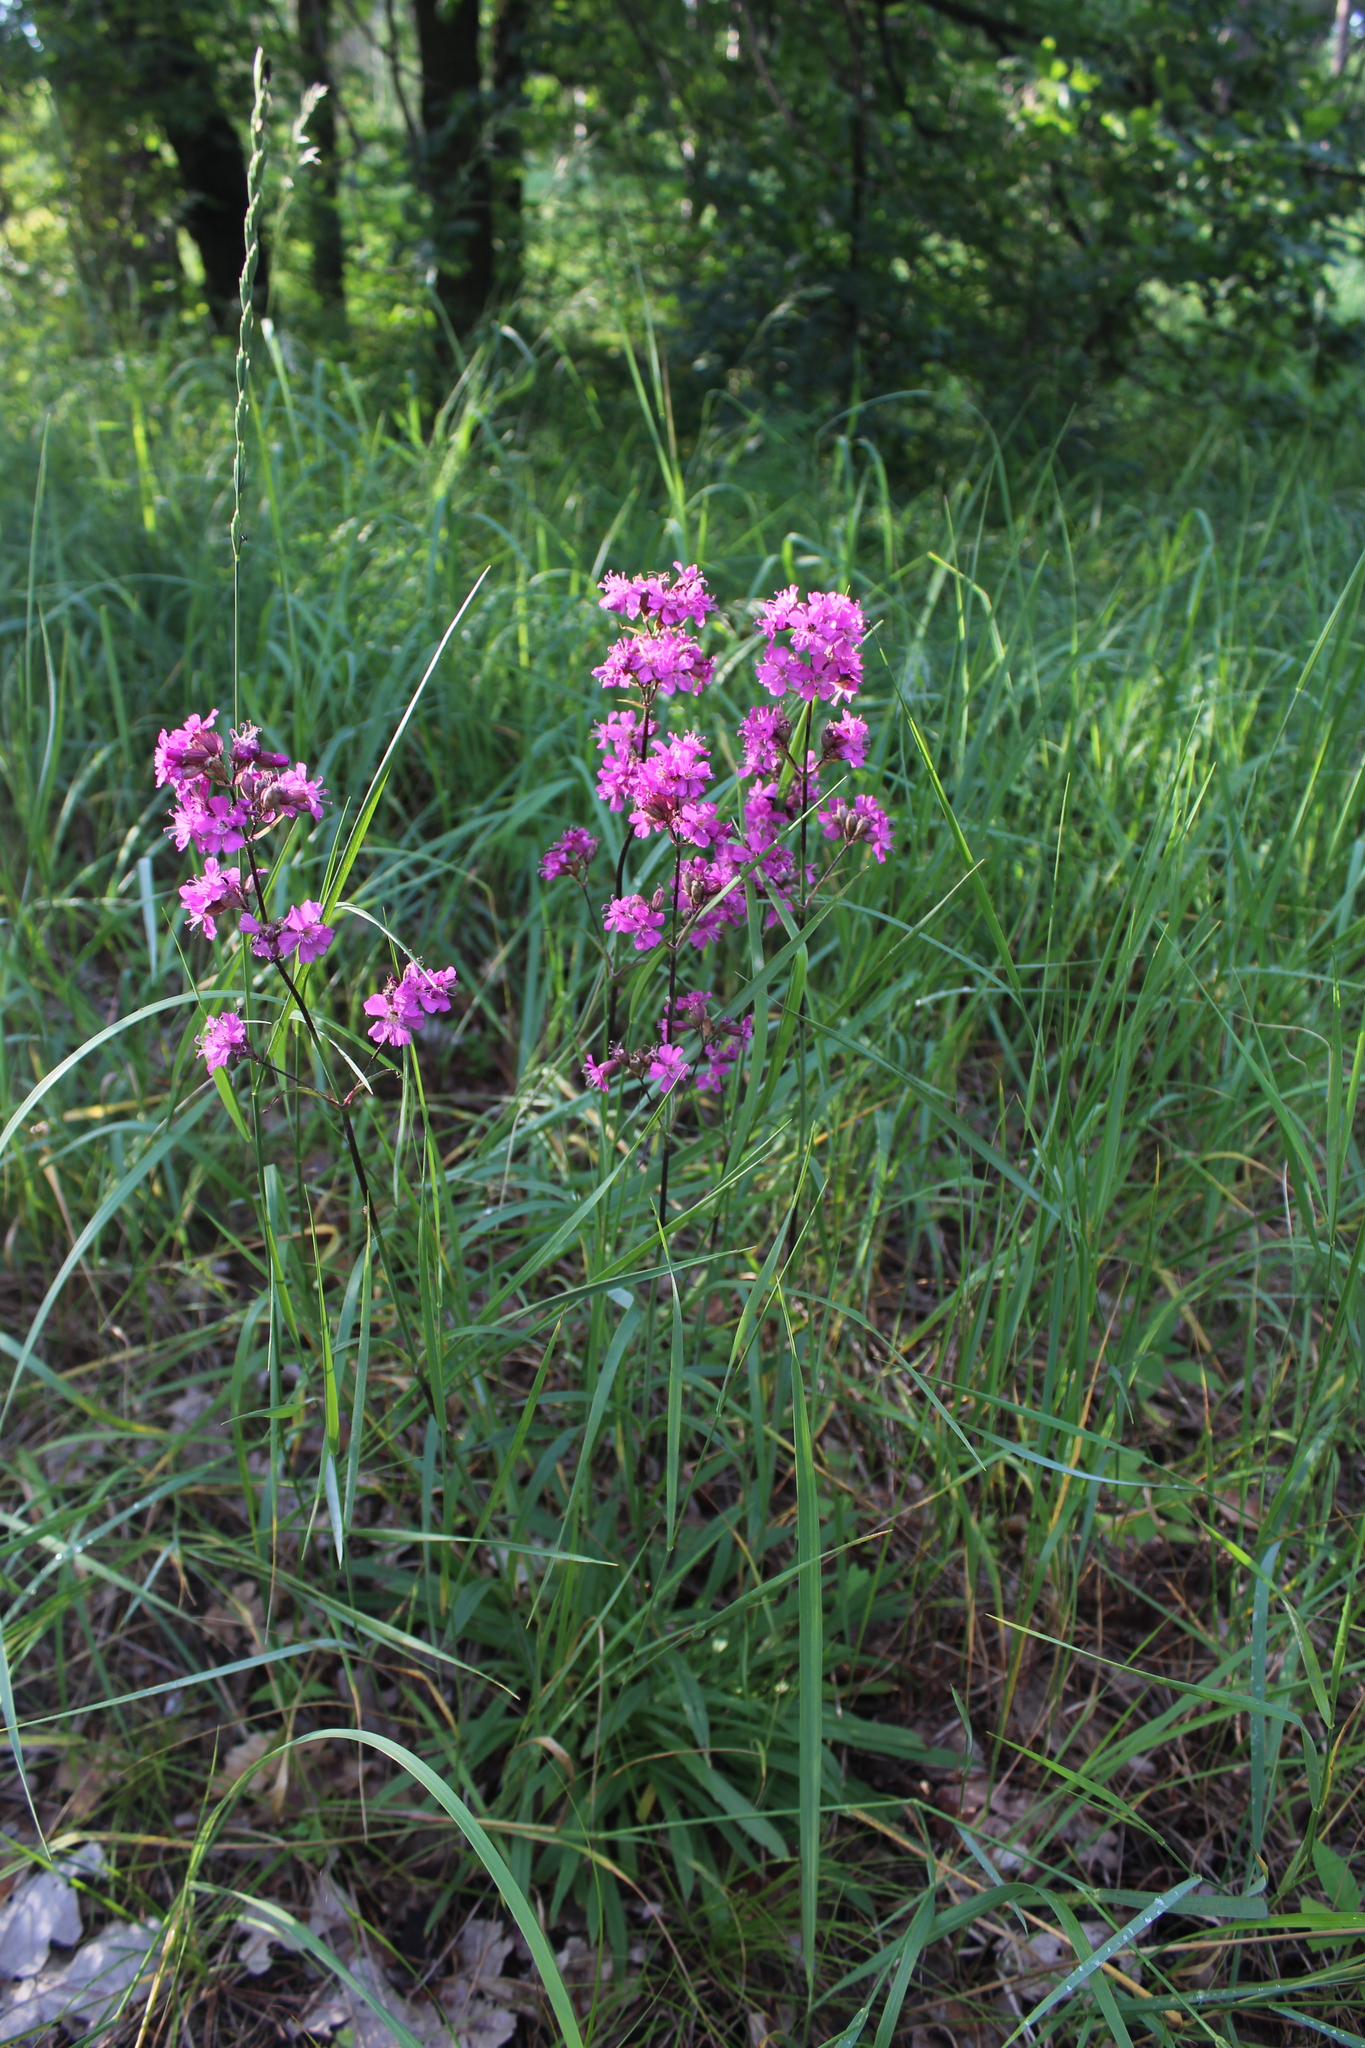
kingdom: Plantae
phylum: Tracheophyta
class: Magnoliopsida
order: Caryophyllales
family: Caryophyllaceae
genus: Viscaria
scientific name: Viscaria vulgaris
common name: Clammy campion
